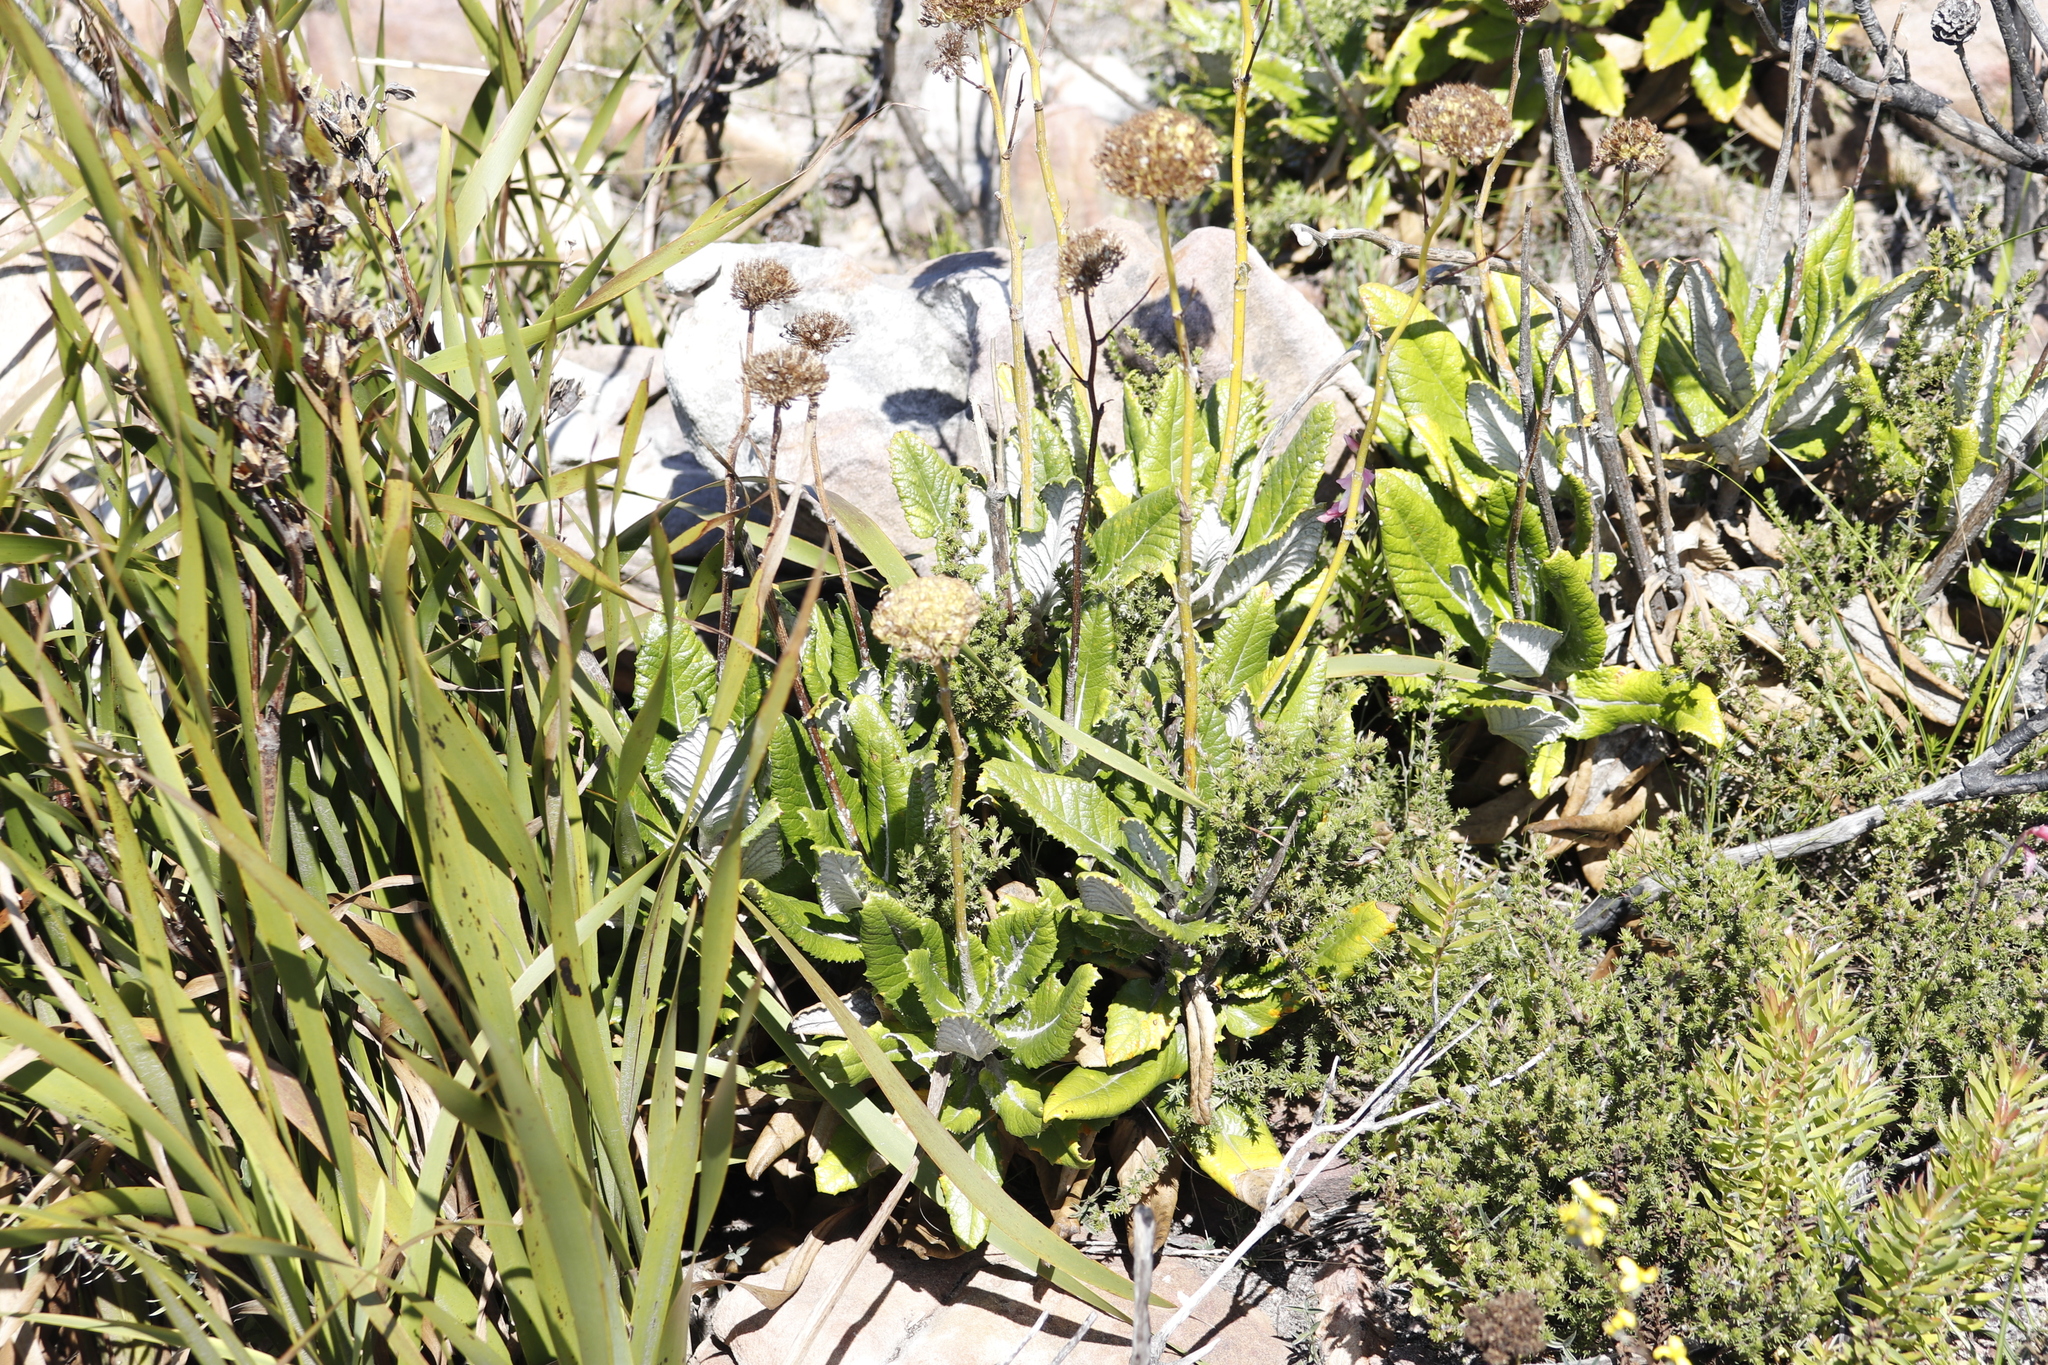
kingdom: Plantae
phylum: Tracheophyta
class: Magnoliopsida
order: Apiales
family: Apiaceae
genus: Hermas
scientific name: Hermas villosa
